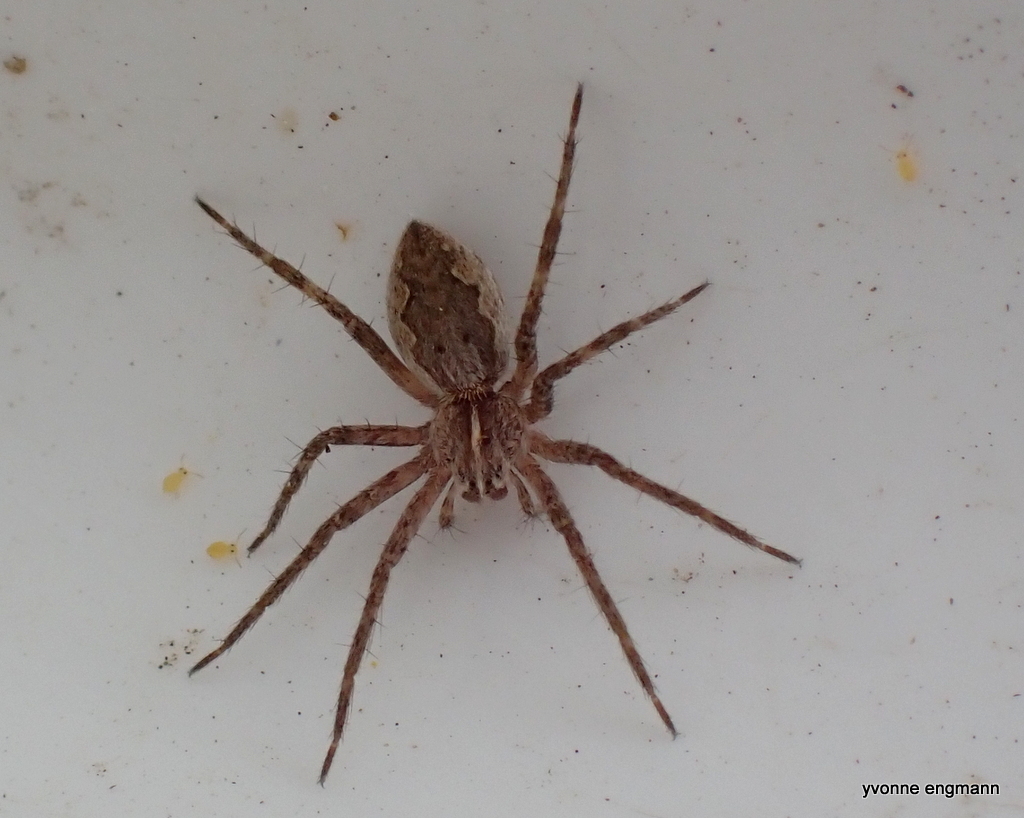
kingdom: Animalia
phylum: Arthropoda
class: Arachnida
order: Araneae
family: Pisauridae
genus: Pisaura
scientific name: Pisaura mirabilis
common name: Tent spider
